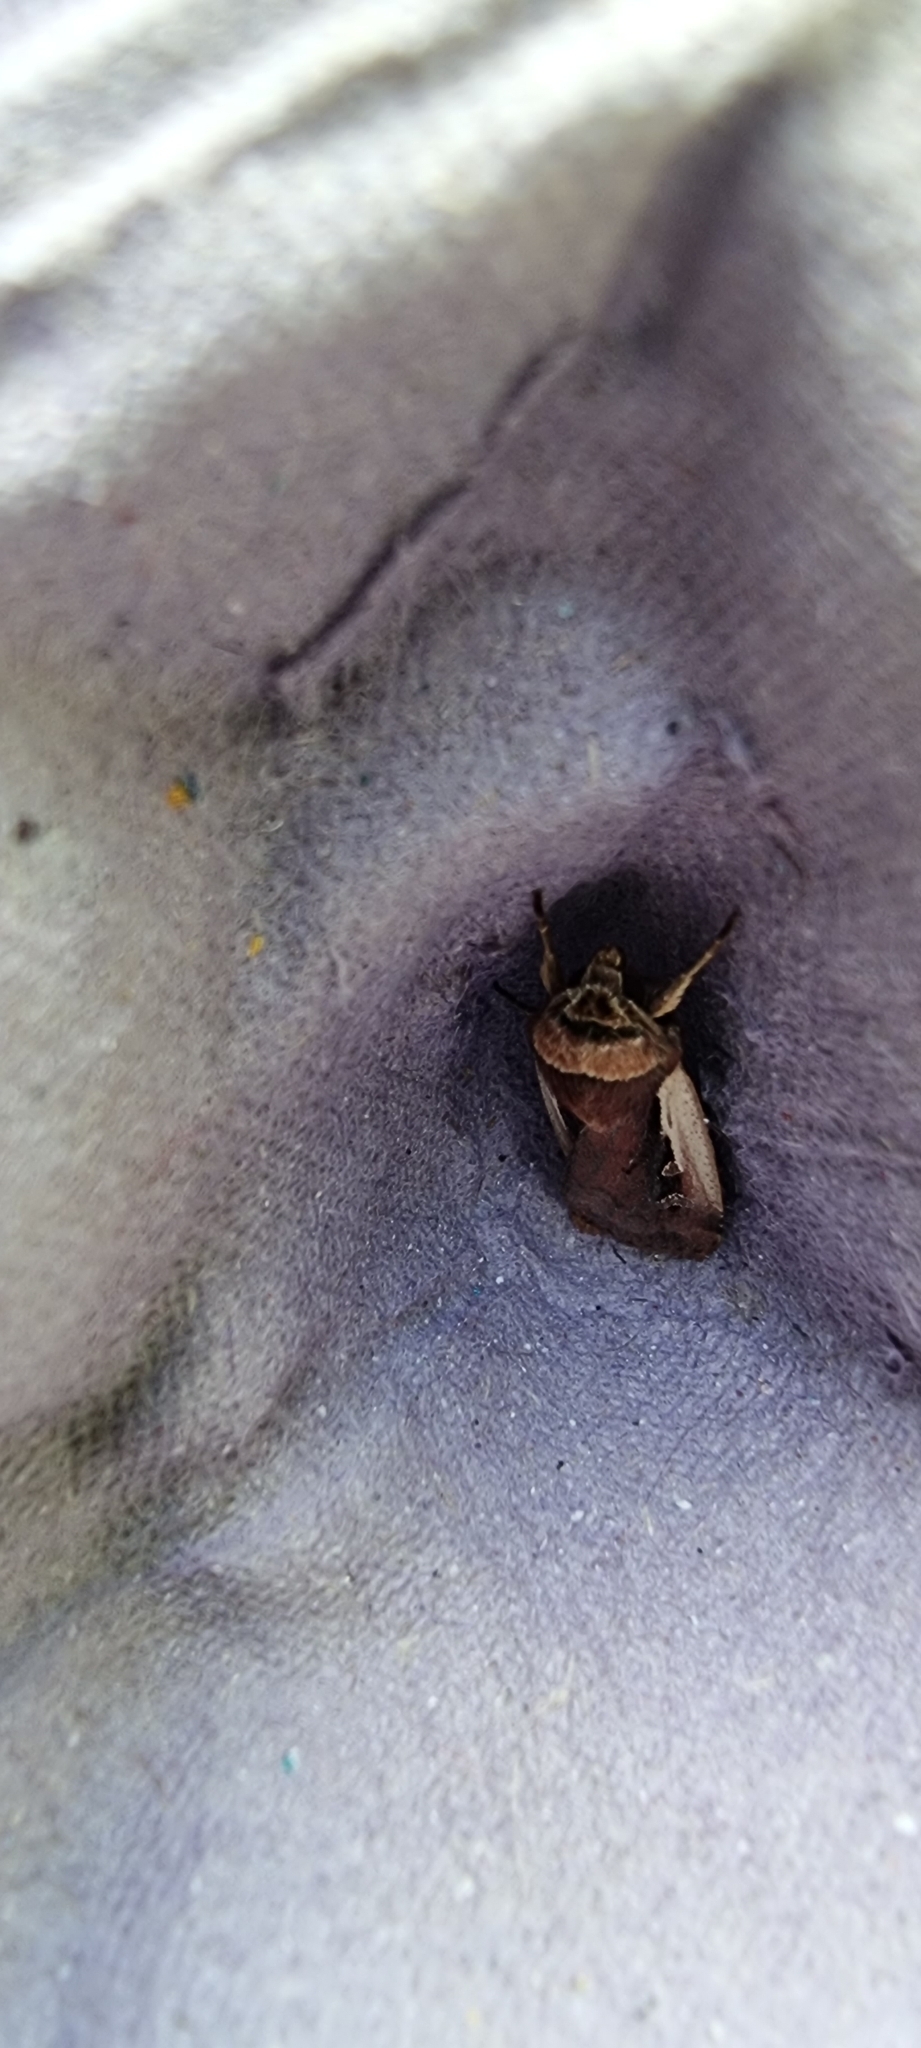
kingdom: Animalia
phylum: Arthropoda
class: Insecta
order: Lepidoptera
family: Noctuidae
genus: Ochropleura
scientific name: Ochropleura plecta
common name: Flame shoulder
